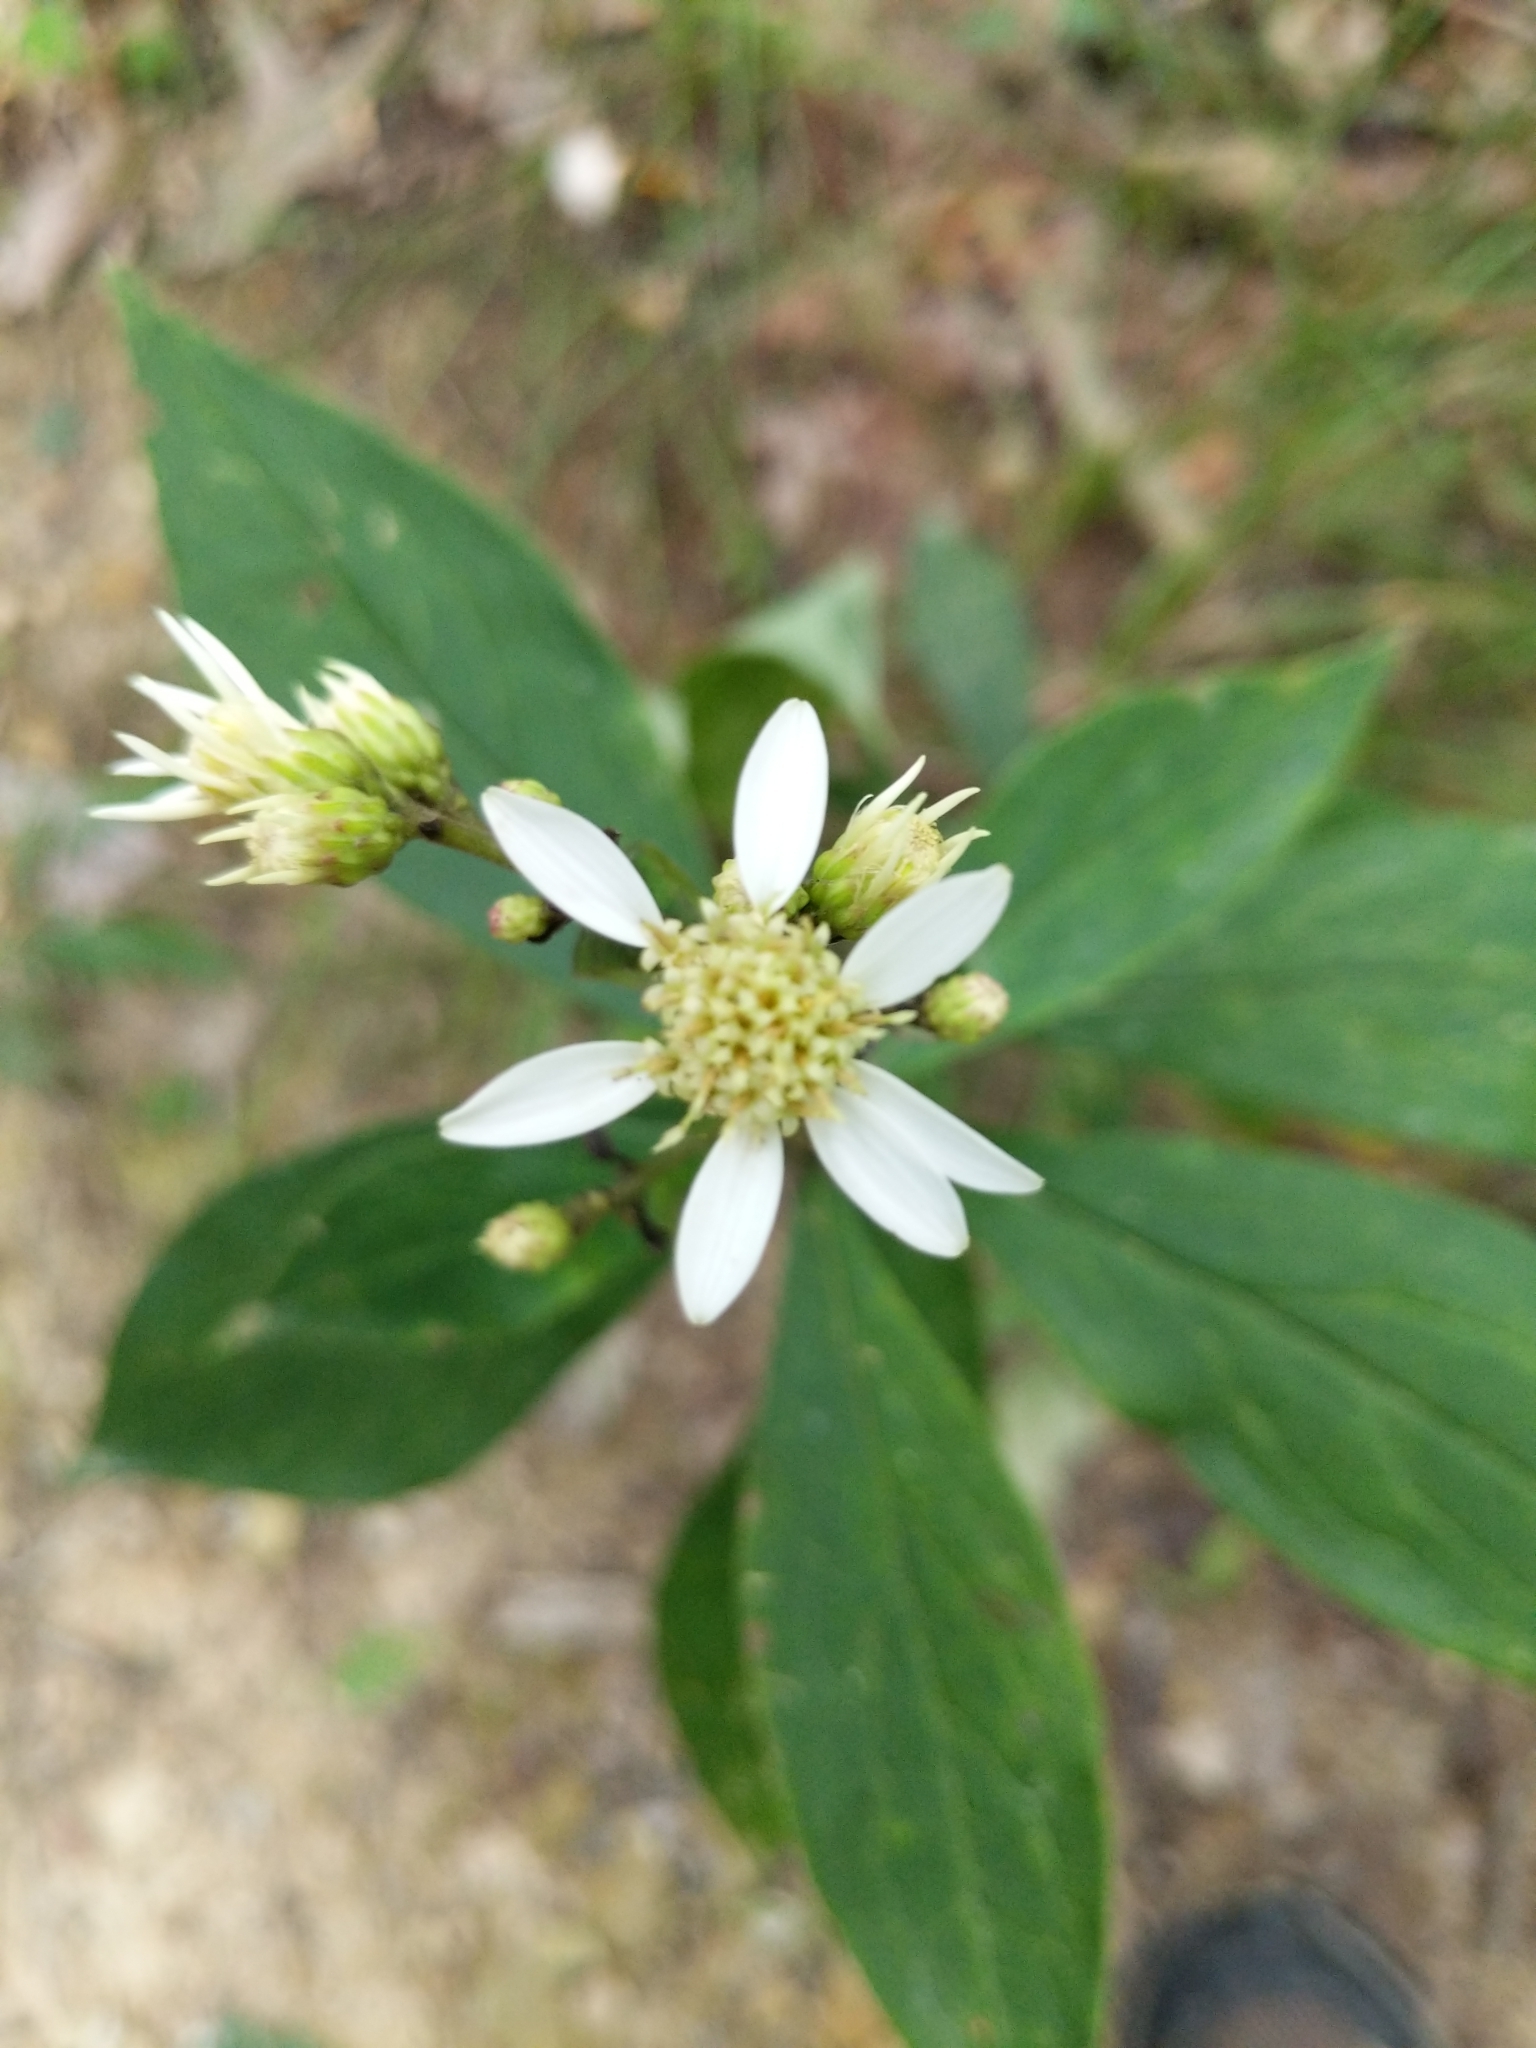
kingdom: Plantae
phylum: Tracheophyta
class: Magnoliopsida
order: Asterales
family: Asteraceae
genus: Doellingeria
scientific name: Doellingeria umbellata
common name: Flat-top white aster
